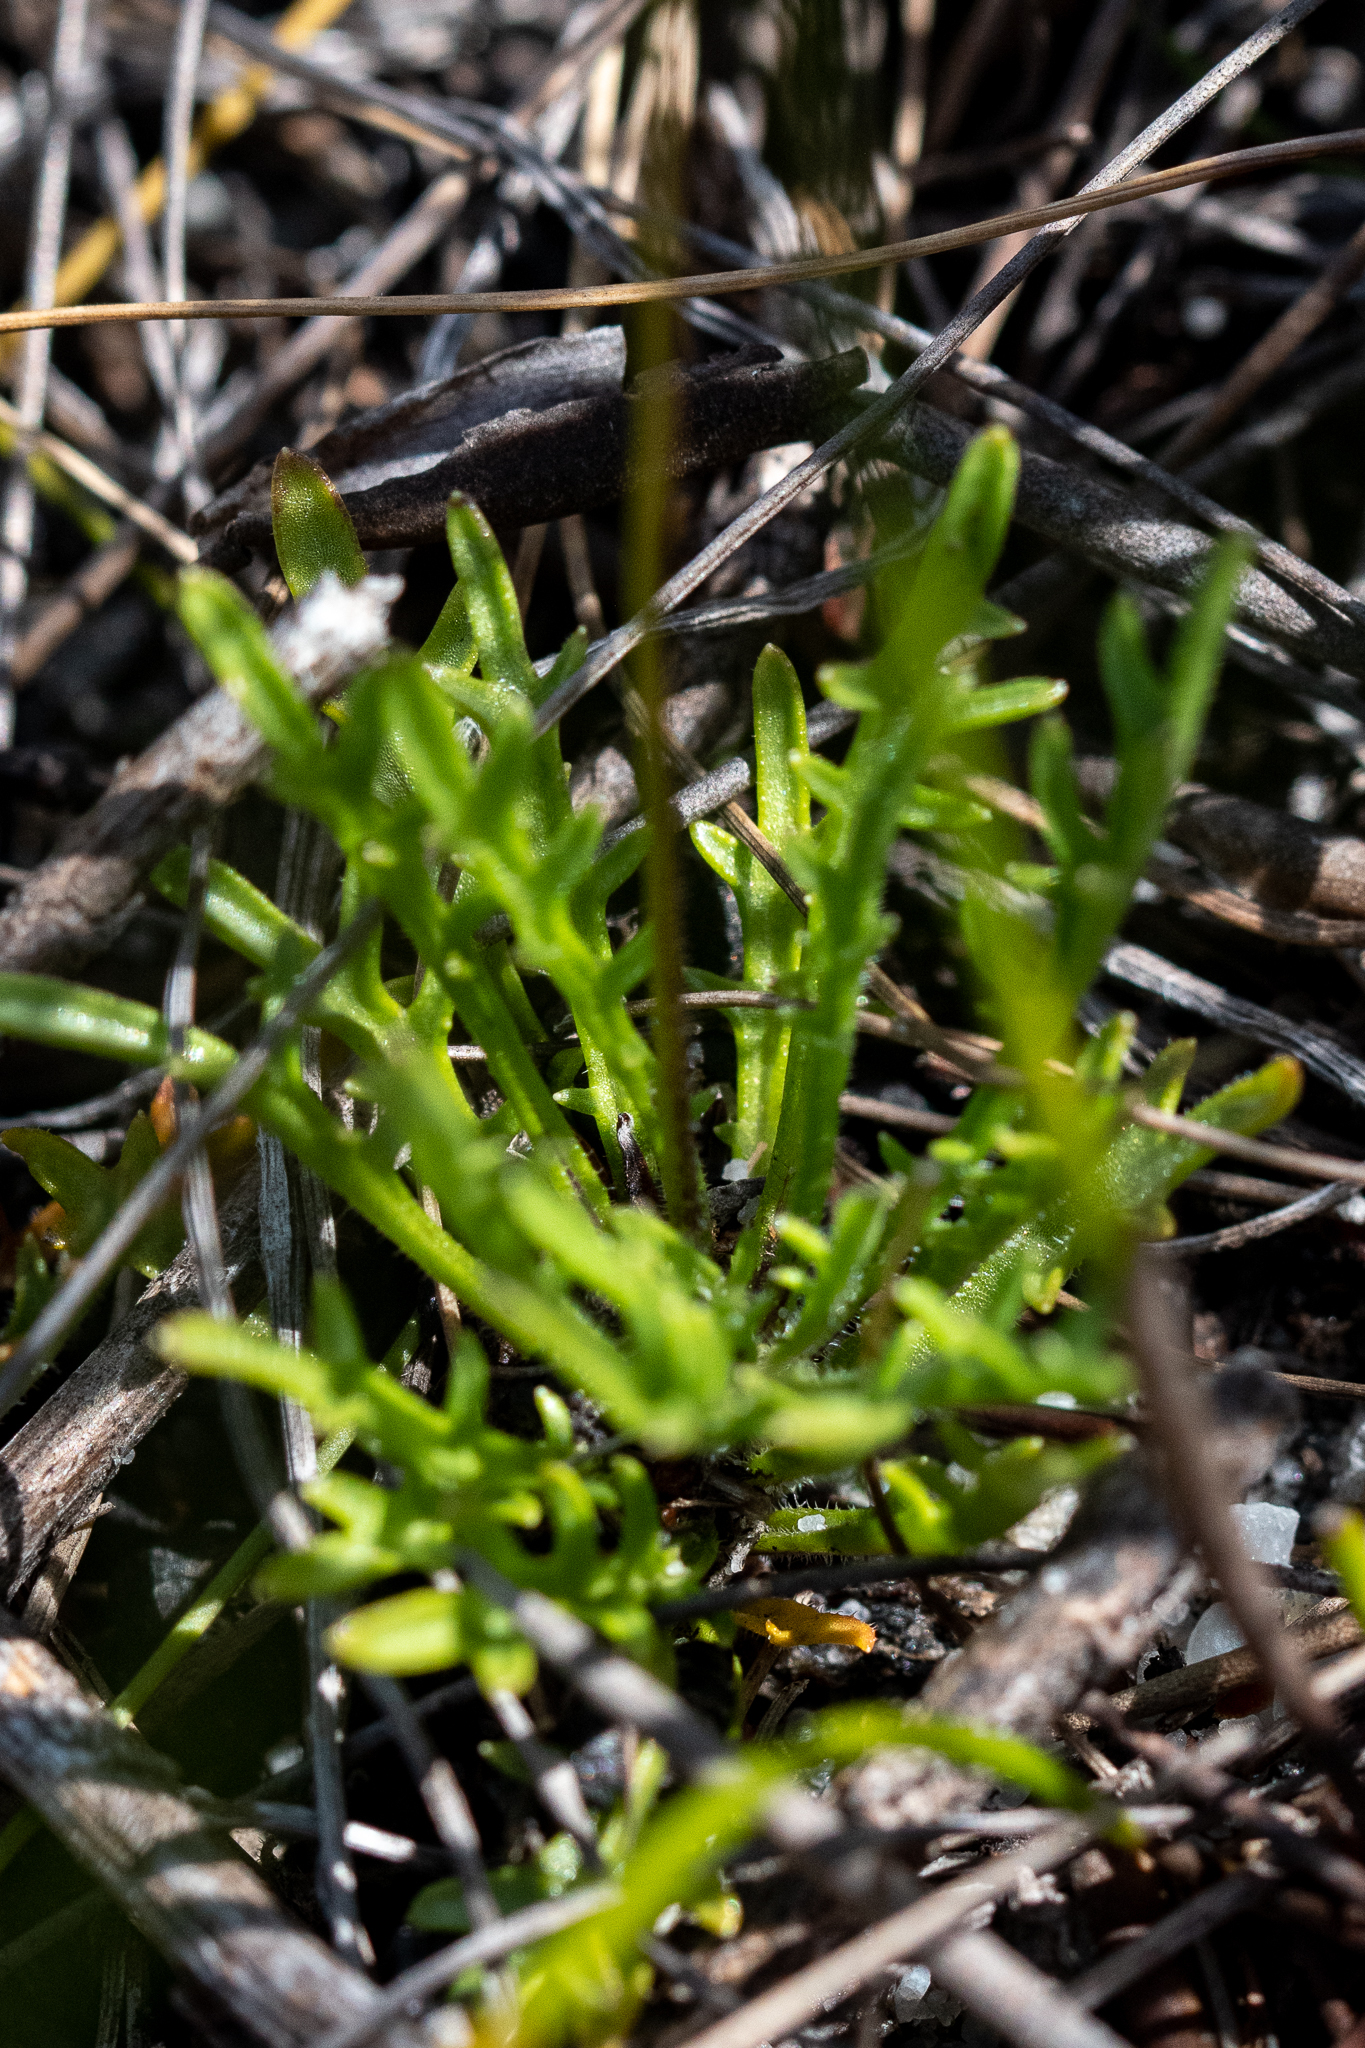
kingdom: Plantae
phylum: Tracheophyta
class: Magnoliopsida
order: Asterales
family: Campanulaceae
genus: Lobelia
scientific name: Lobelia coronopifolia
